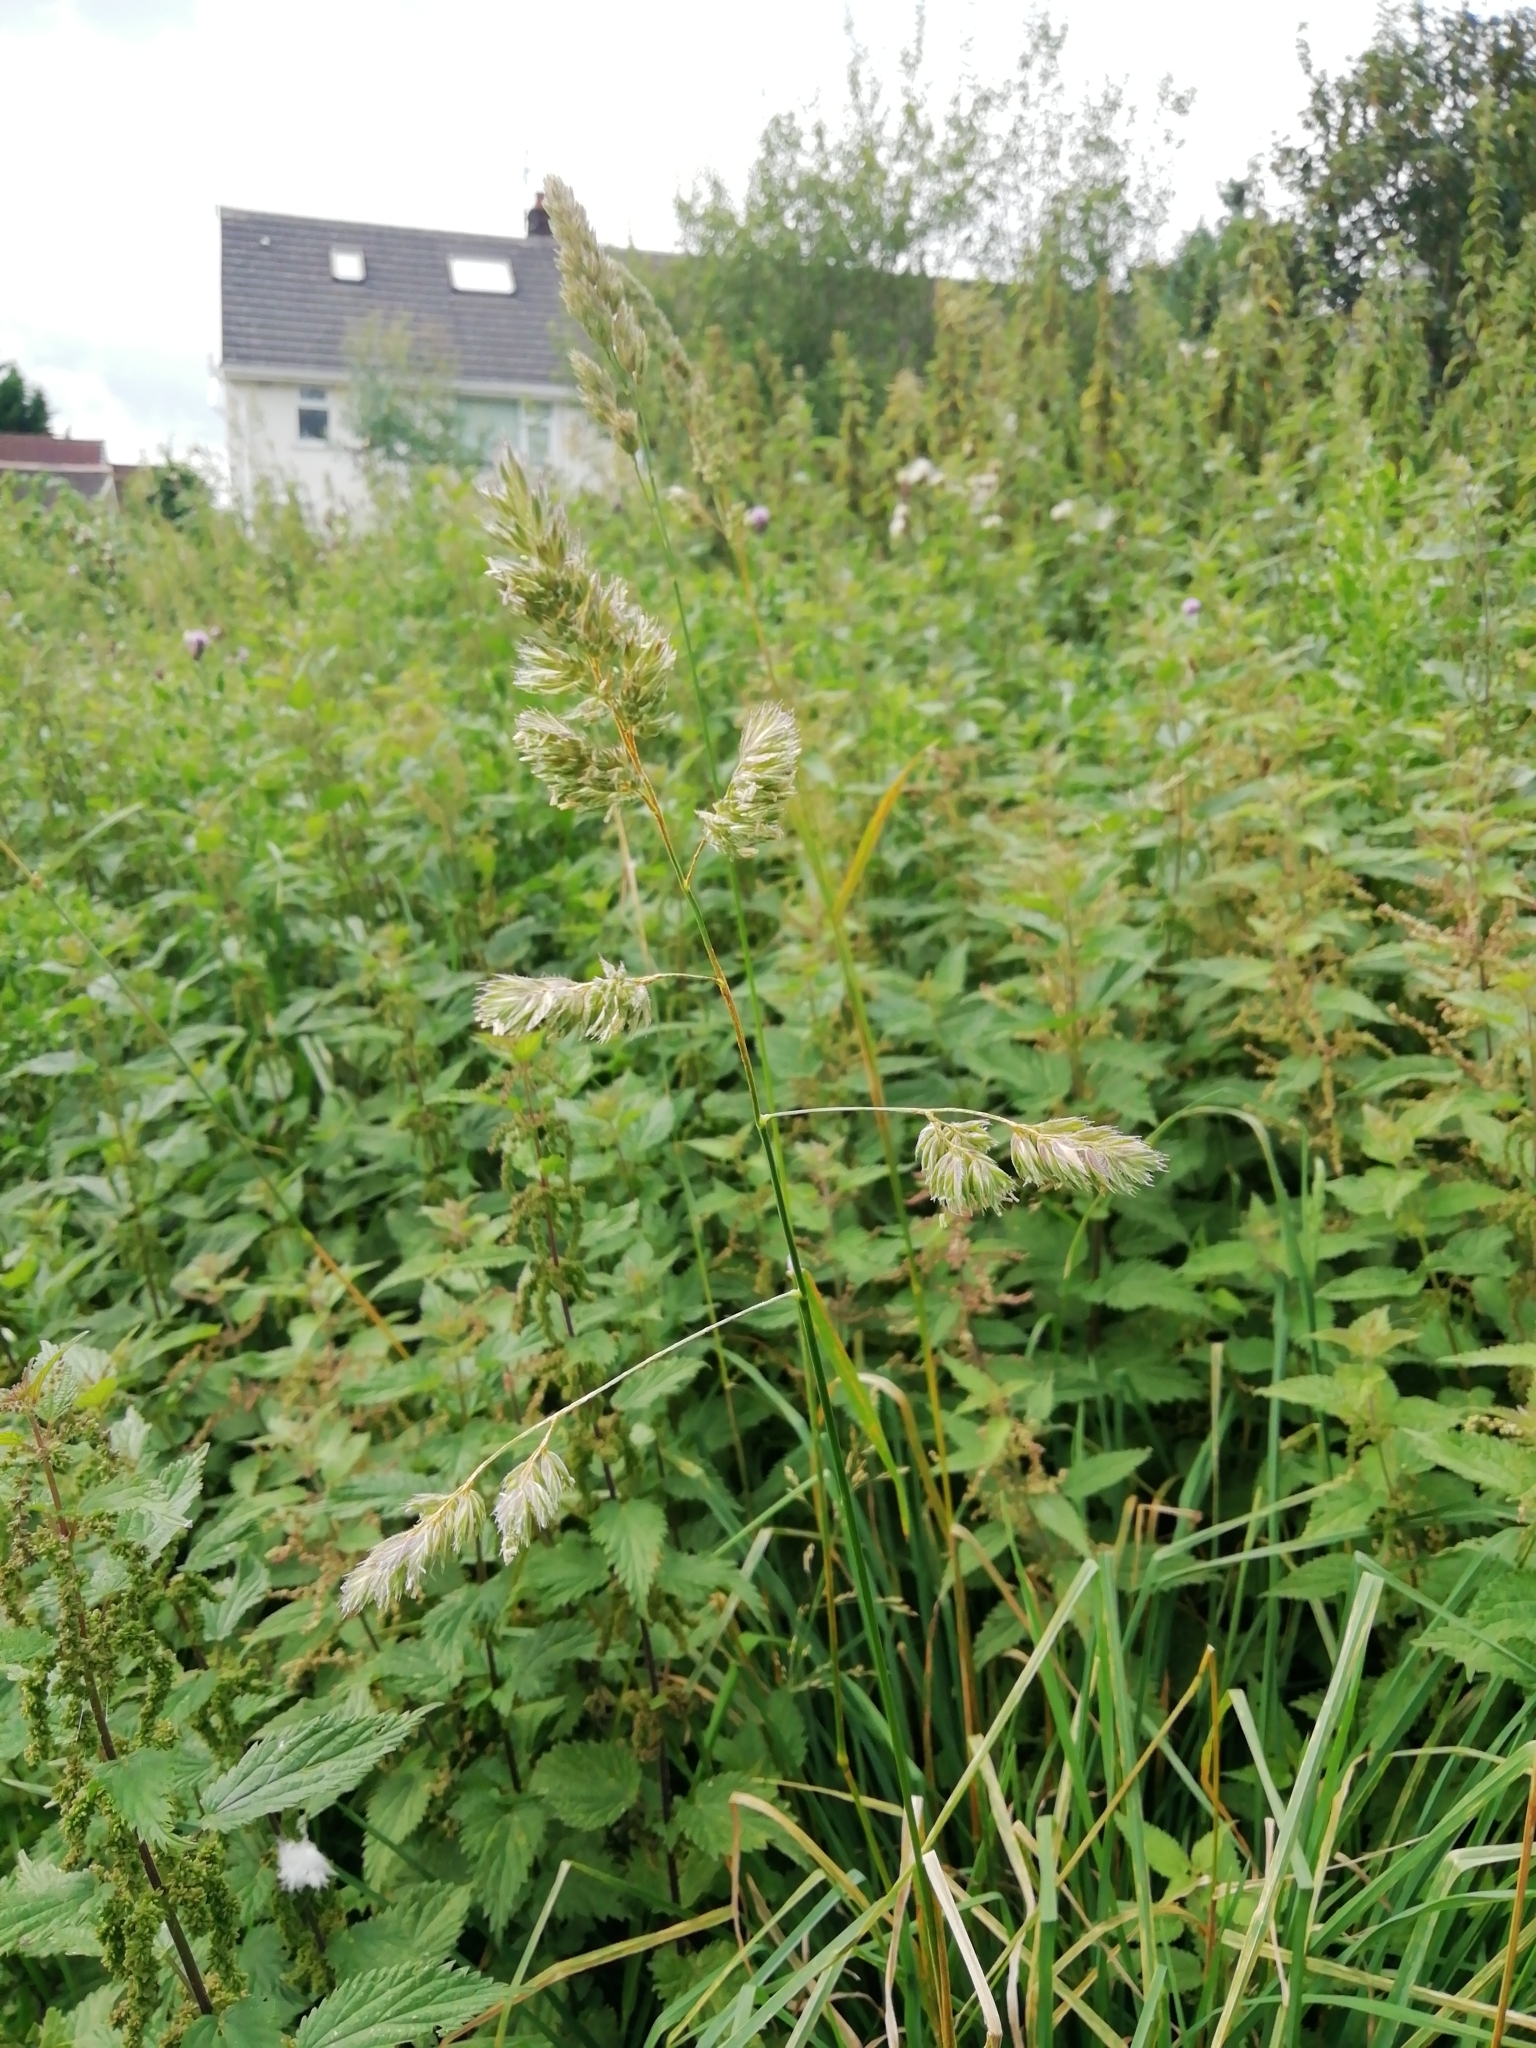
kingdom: Plantae
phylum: Tracheophyta
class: Liliopsida
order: Poales
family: Poaceae
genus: Dactylis
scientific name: Dactylis glomerata
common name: Orchardgrass
